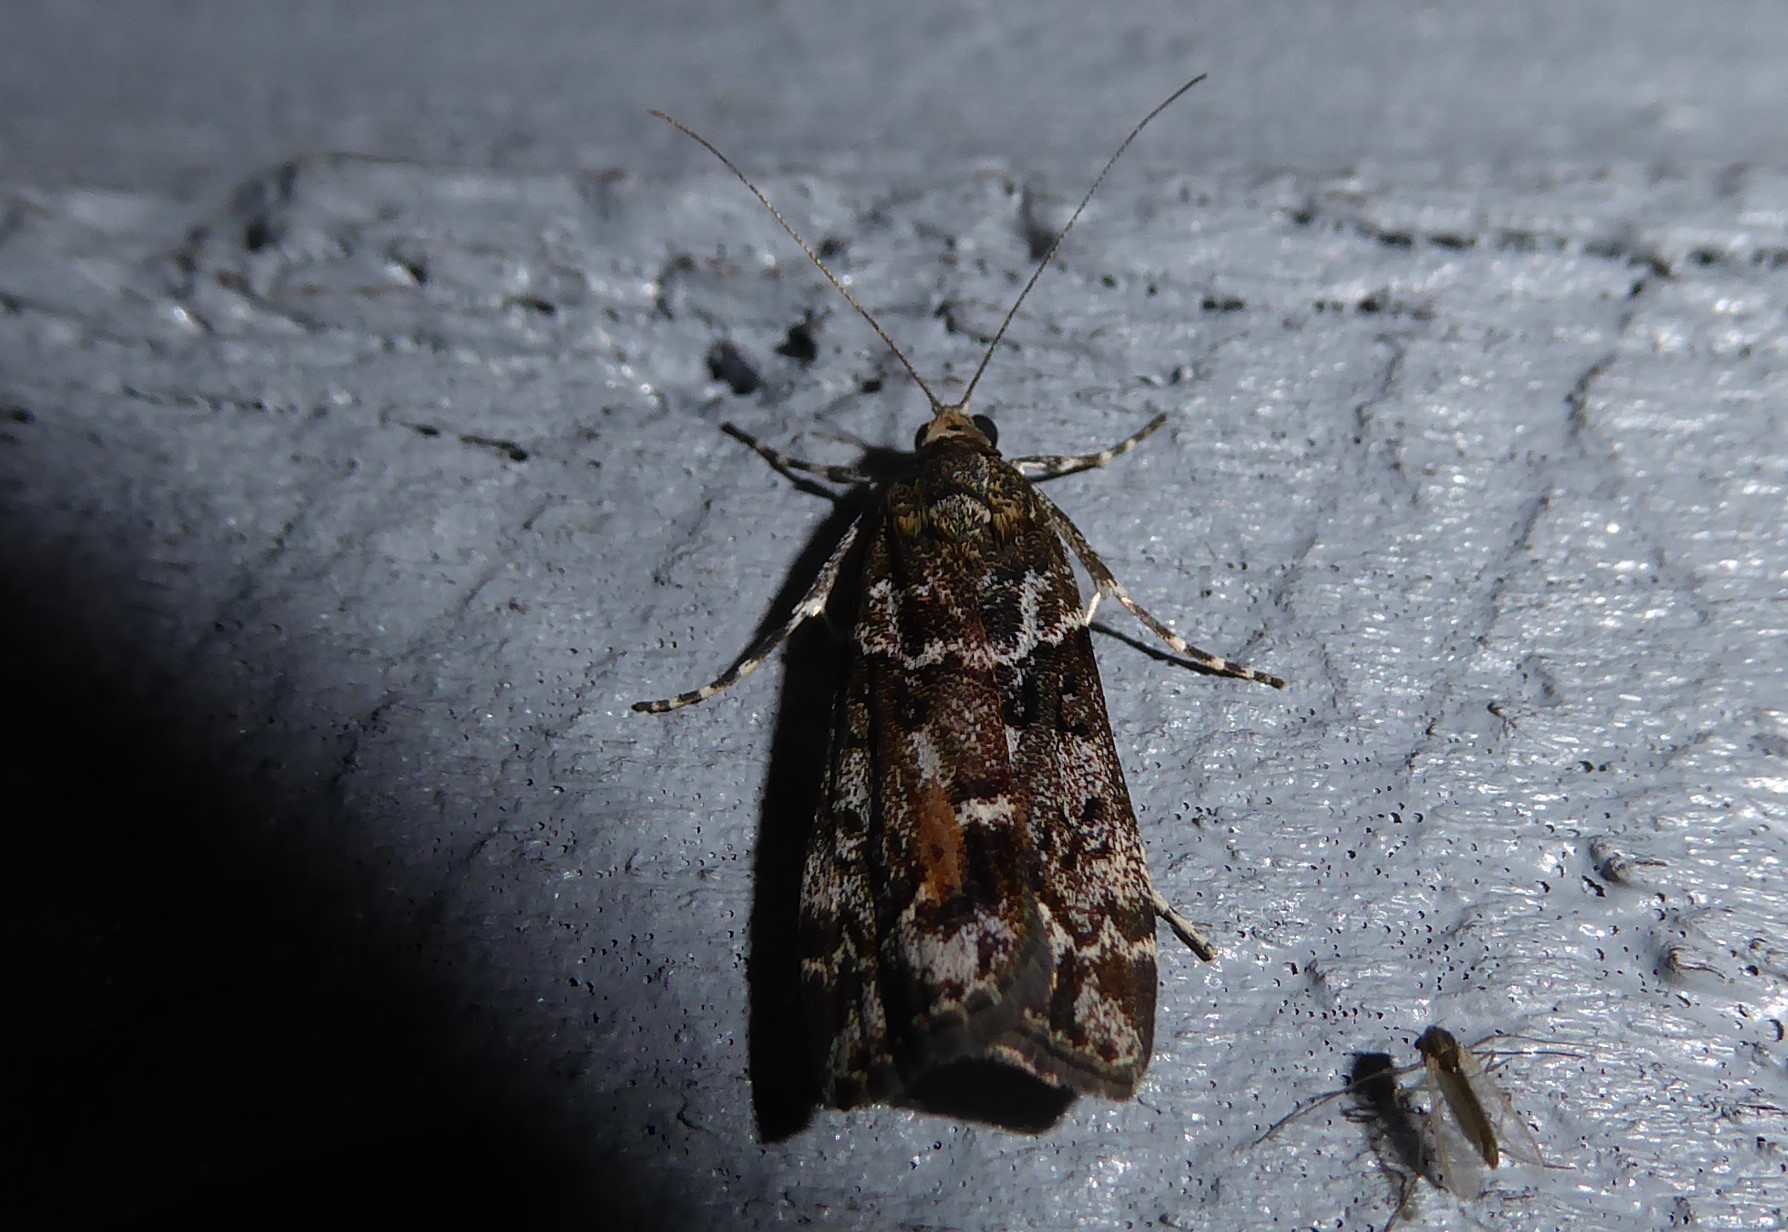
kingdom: Animalia
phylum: Arthropoda
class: Insecta
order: Lepidoptera
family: Crambidae
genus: Eudonia
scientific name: Eudonia submarginalis
